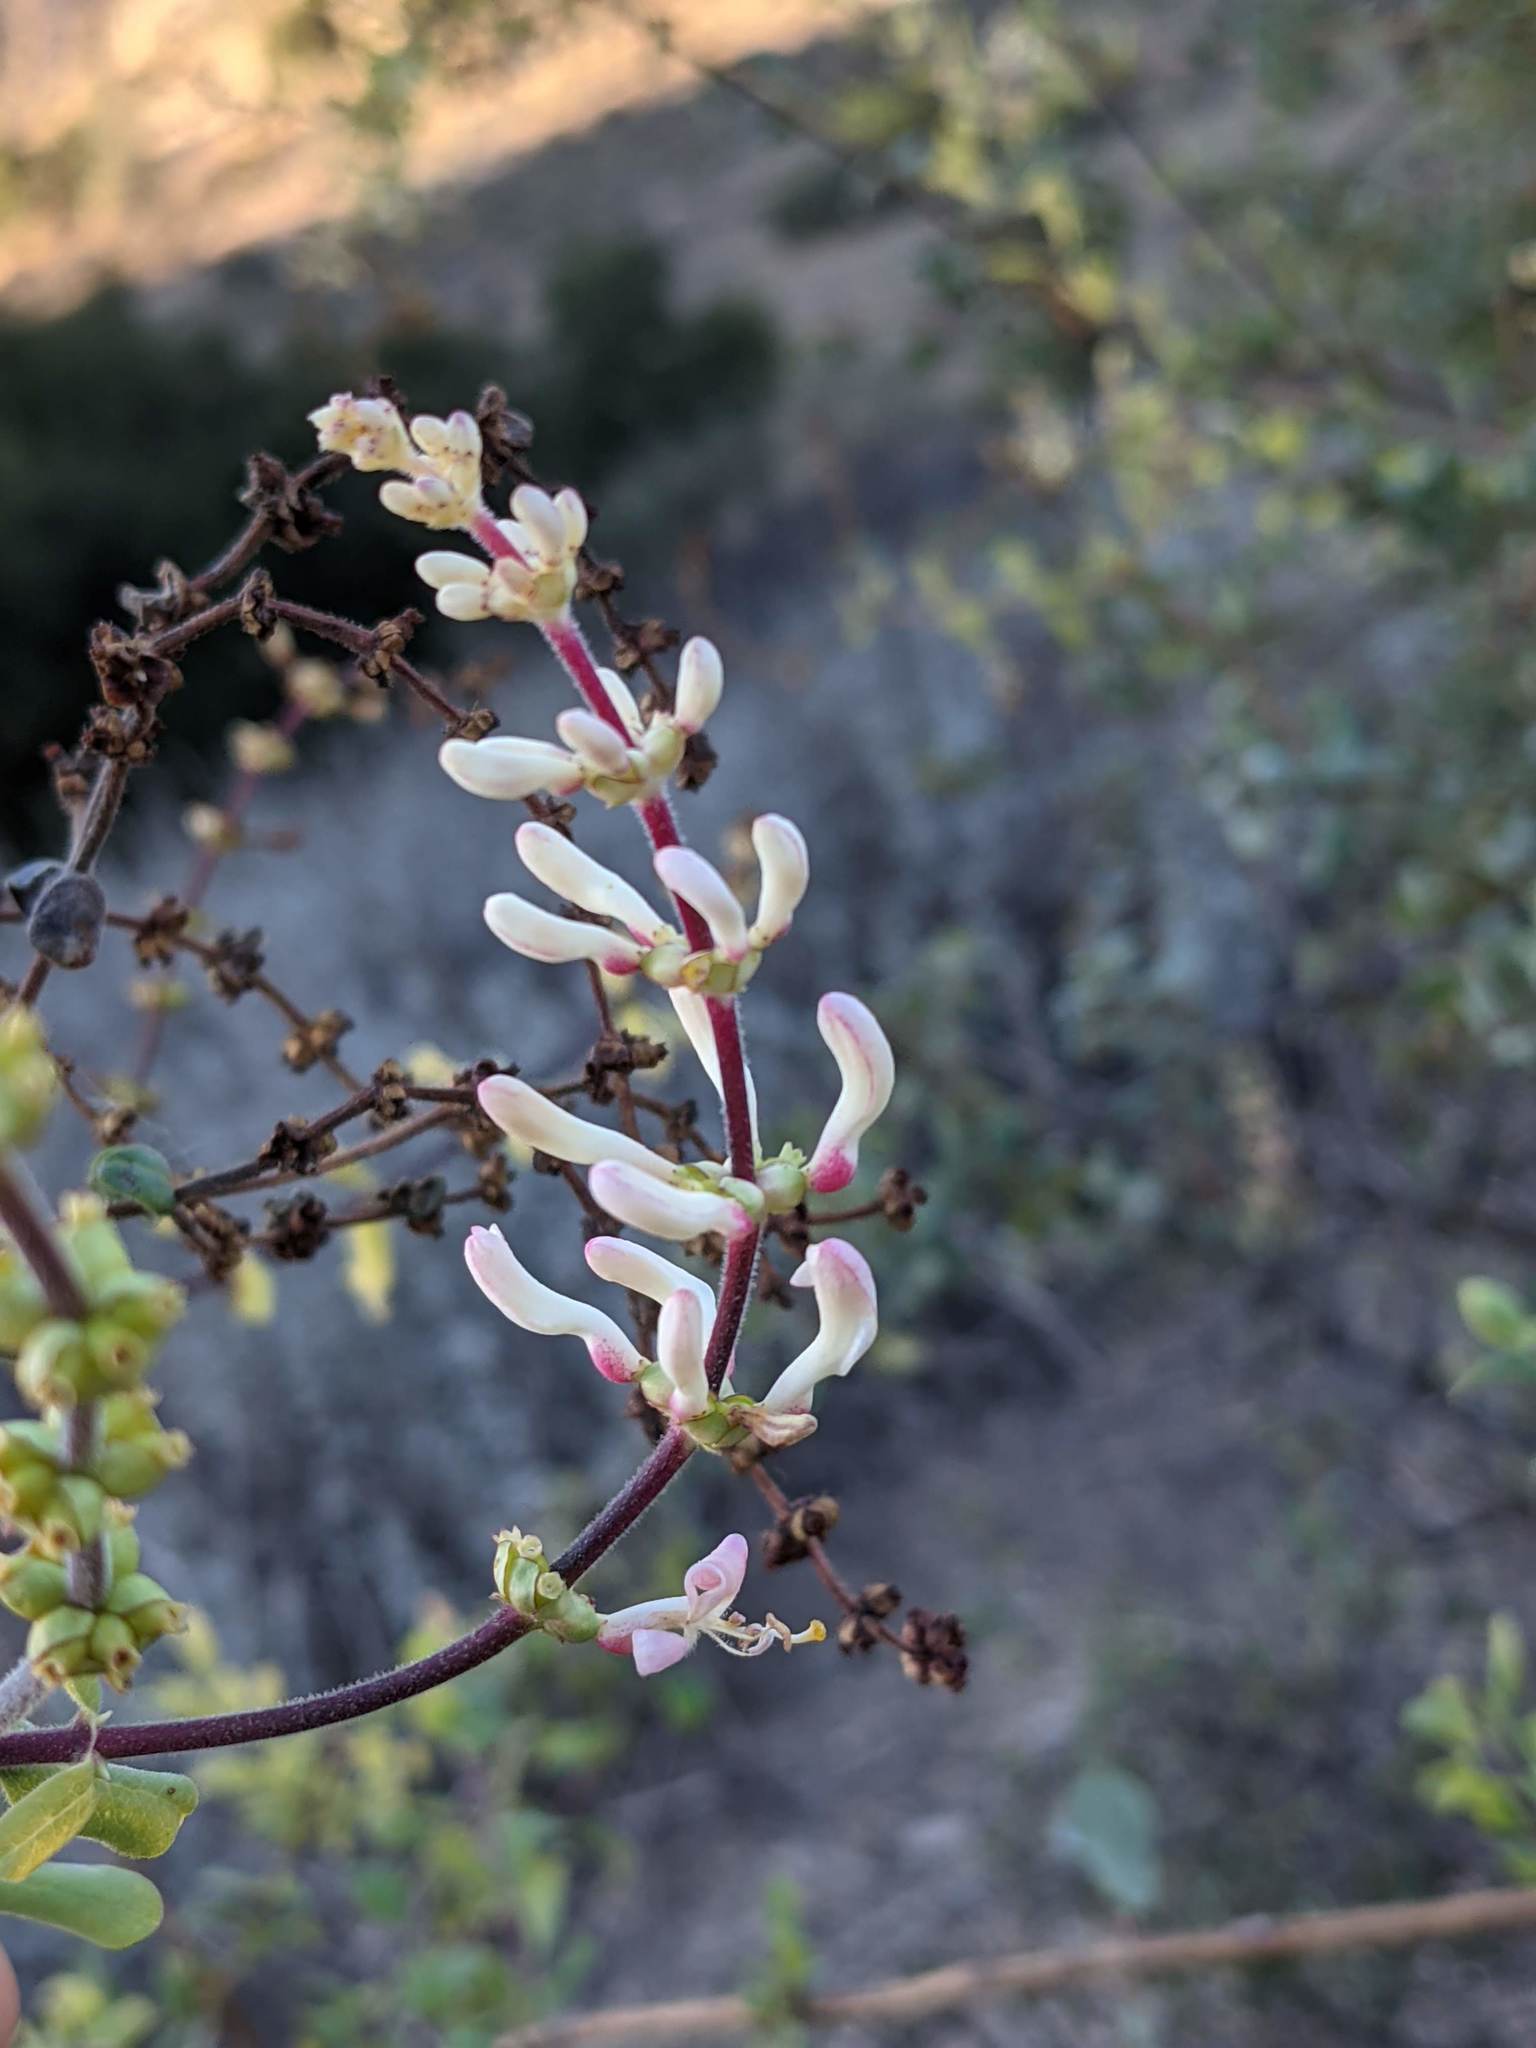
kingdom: Plantae
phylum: Tracheophyta
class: Magnoliopsida
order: Dipsacales
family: Caprifoliaceae
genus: Lonicera
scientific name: Lonicera subspicata
